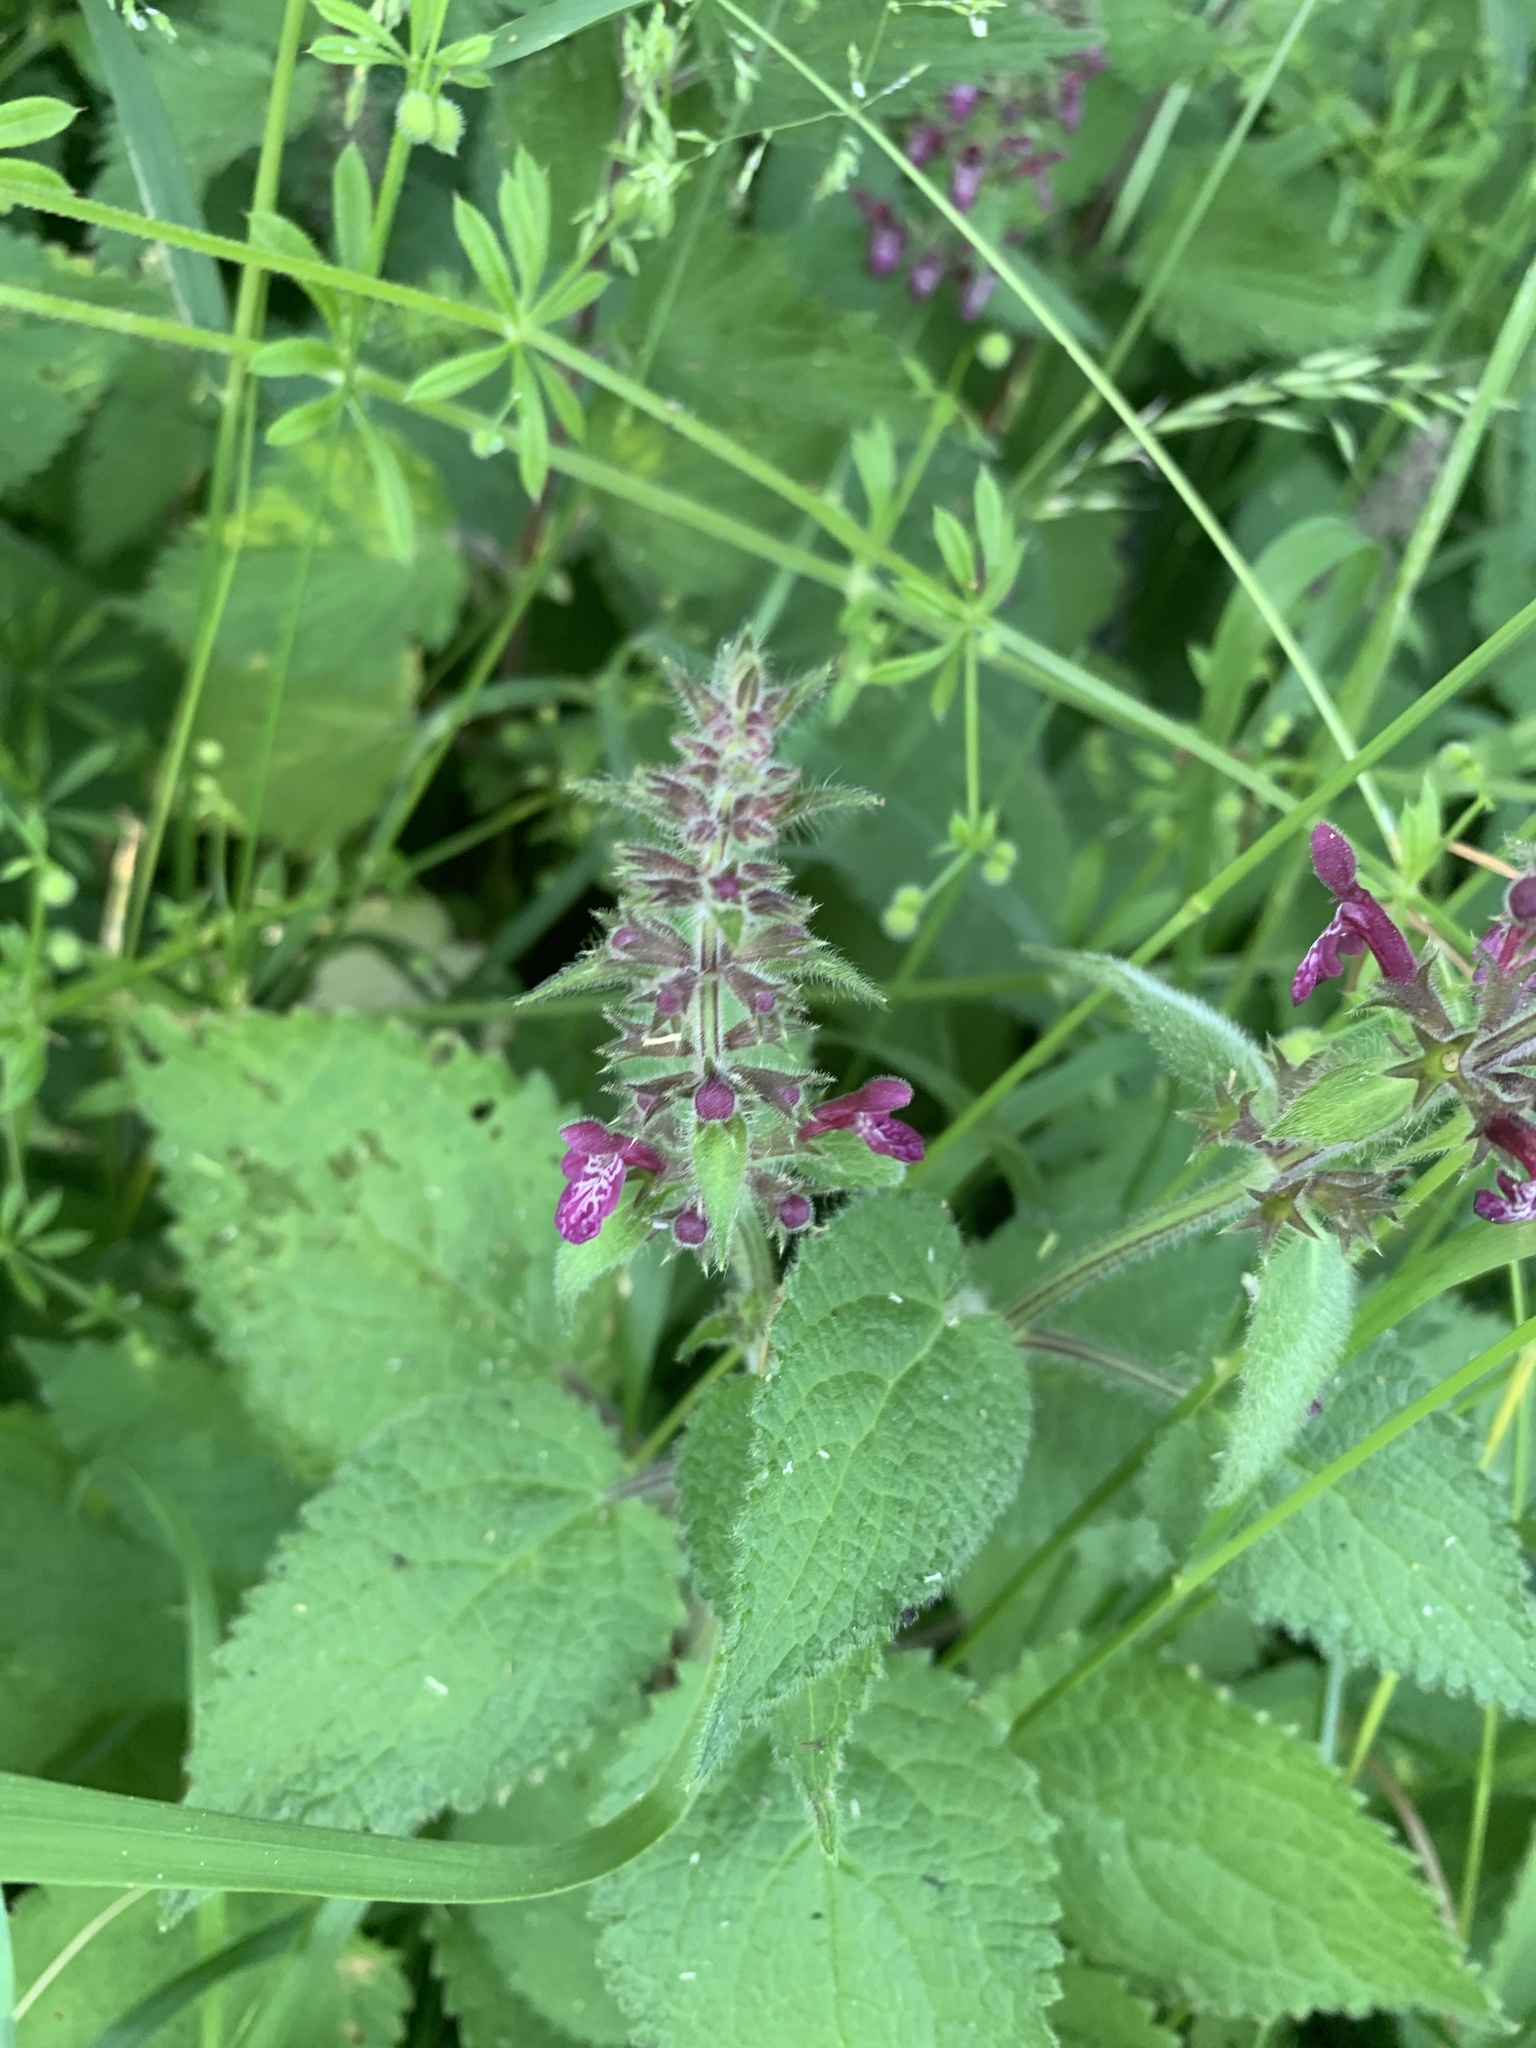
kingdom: Plantae
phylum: Tracheophyta
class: Magnoliopsida
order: Lamiales
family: Lamiaceae
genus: Stachys
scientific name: Stachys sylvatica
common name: Hedge woundwort
